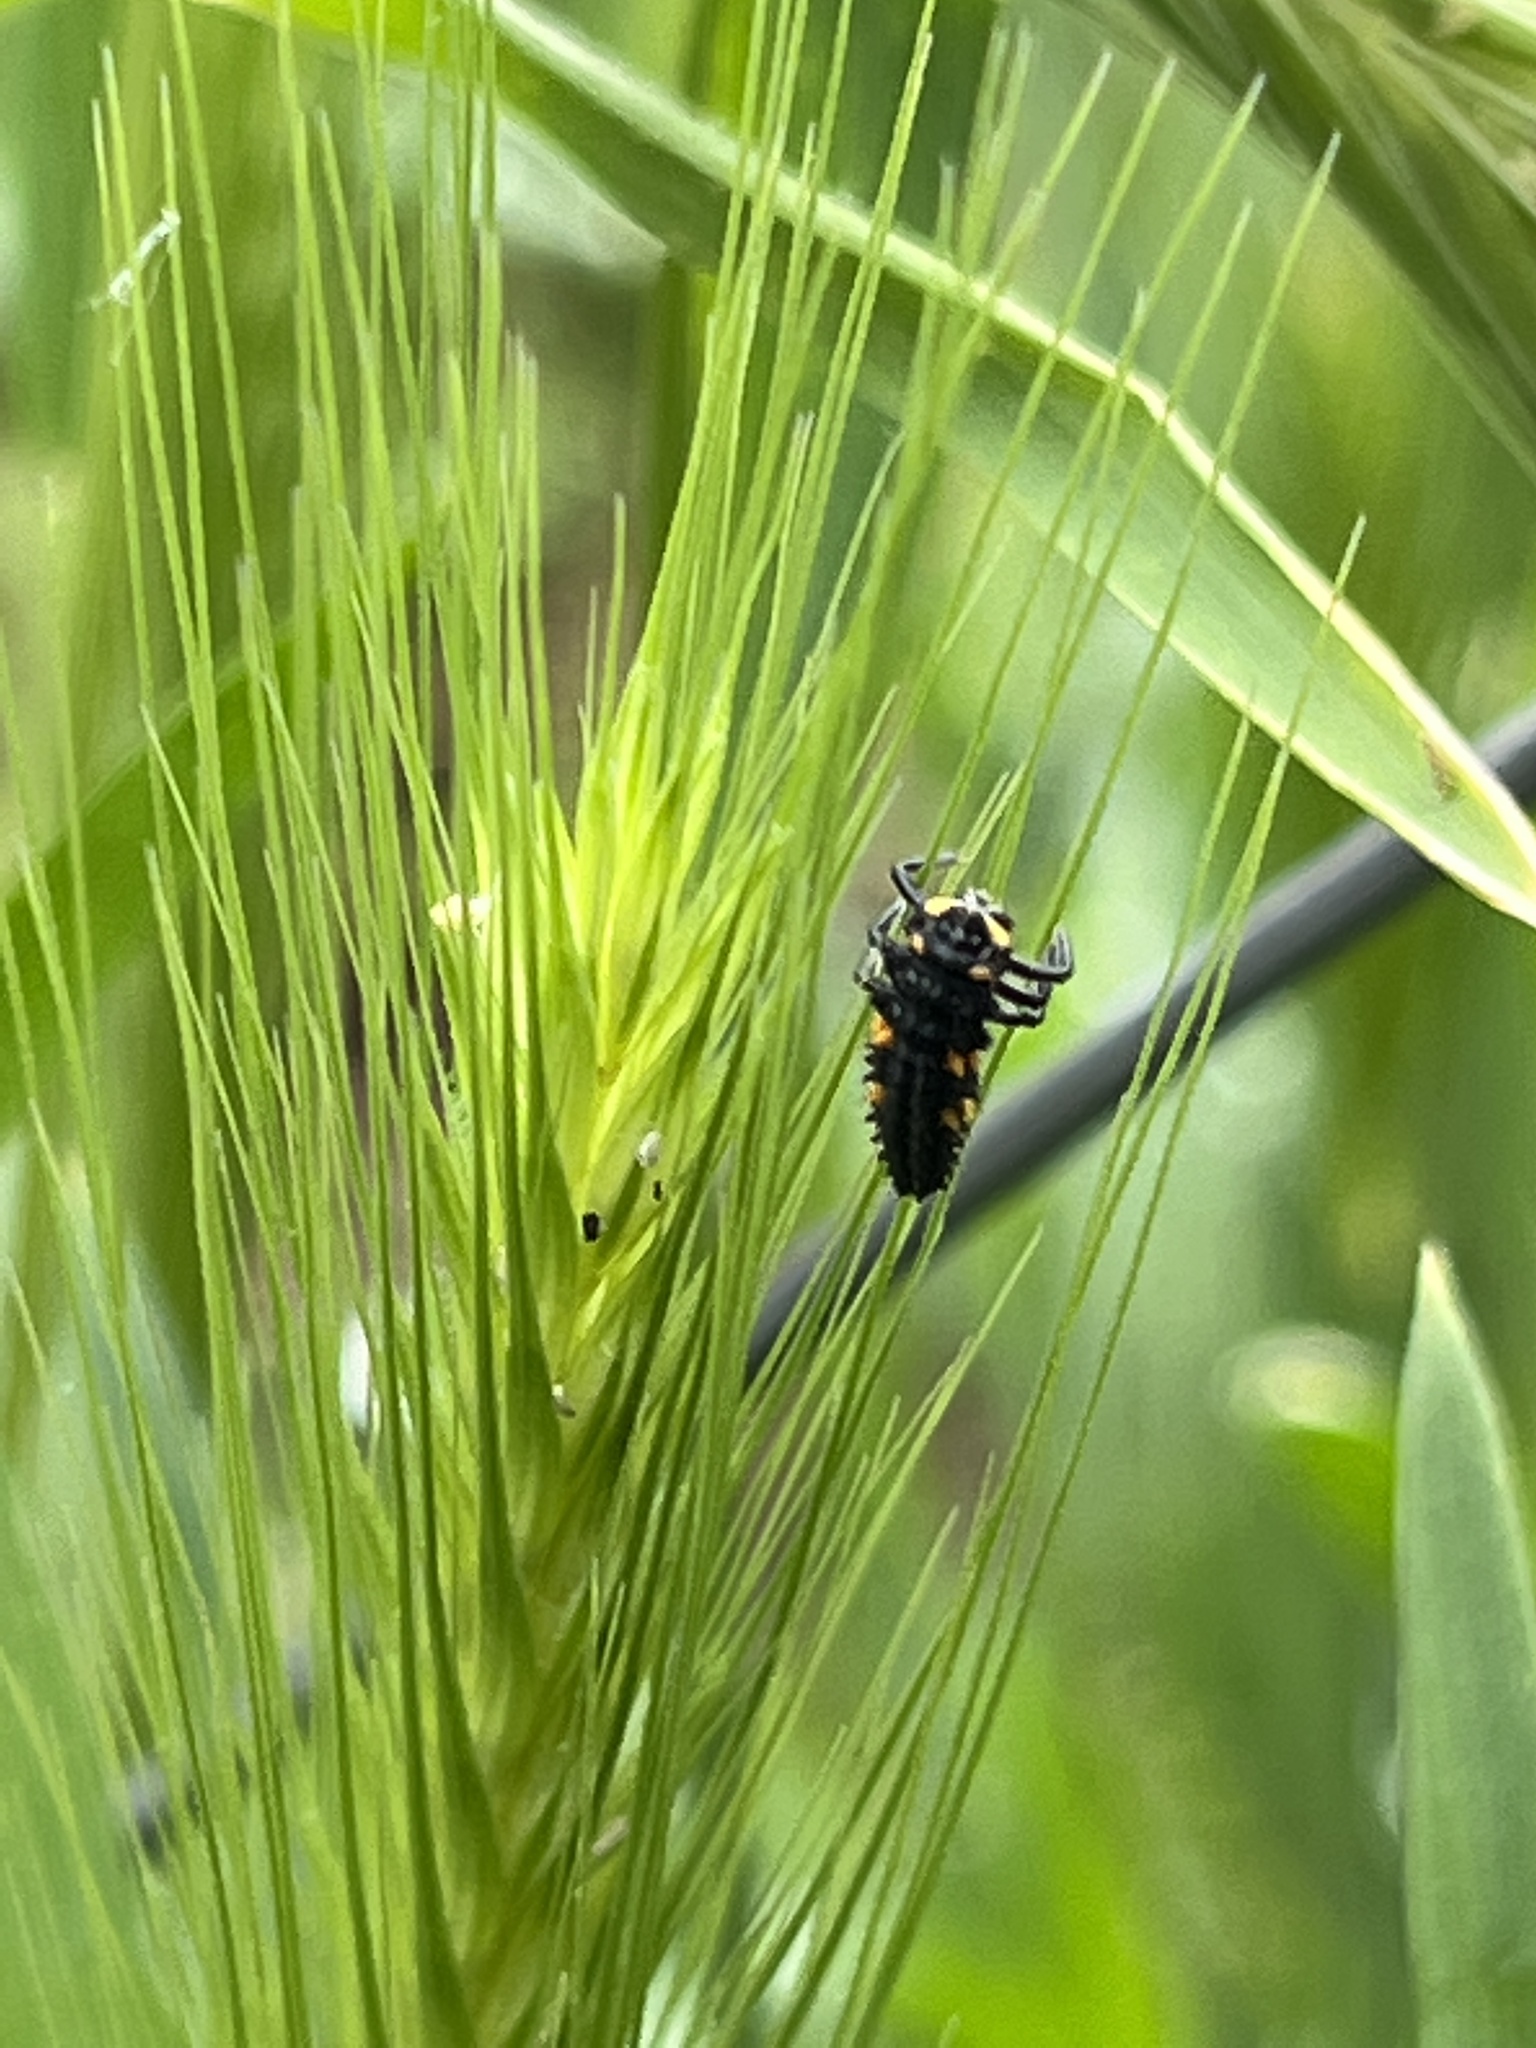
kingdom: Animalia
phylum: Arthropoda
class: Insecta
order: Coleoptera
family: Coccinellidae
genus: Coccinella
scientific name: Coccinella septempunctata
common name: Sevenspotted lady beetle
